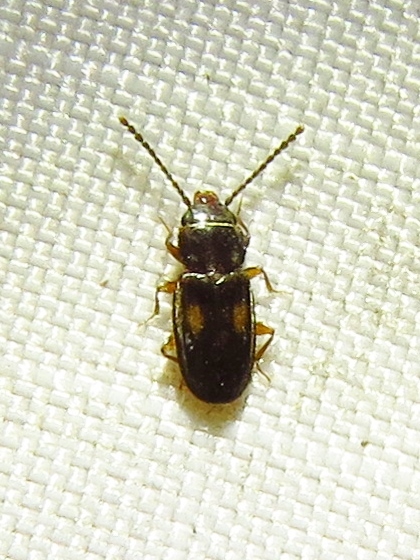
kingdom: Animalia
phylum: Arthropoda
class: Insecta
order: Coleoptera
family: Laemophloeidae
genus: Laemophloeus
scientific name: Laemophloeus biguttatus
